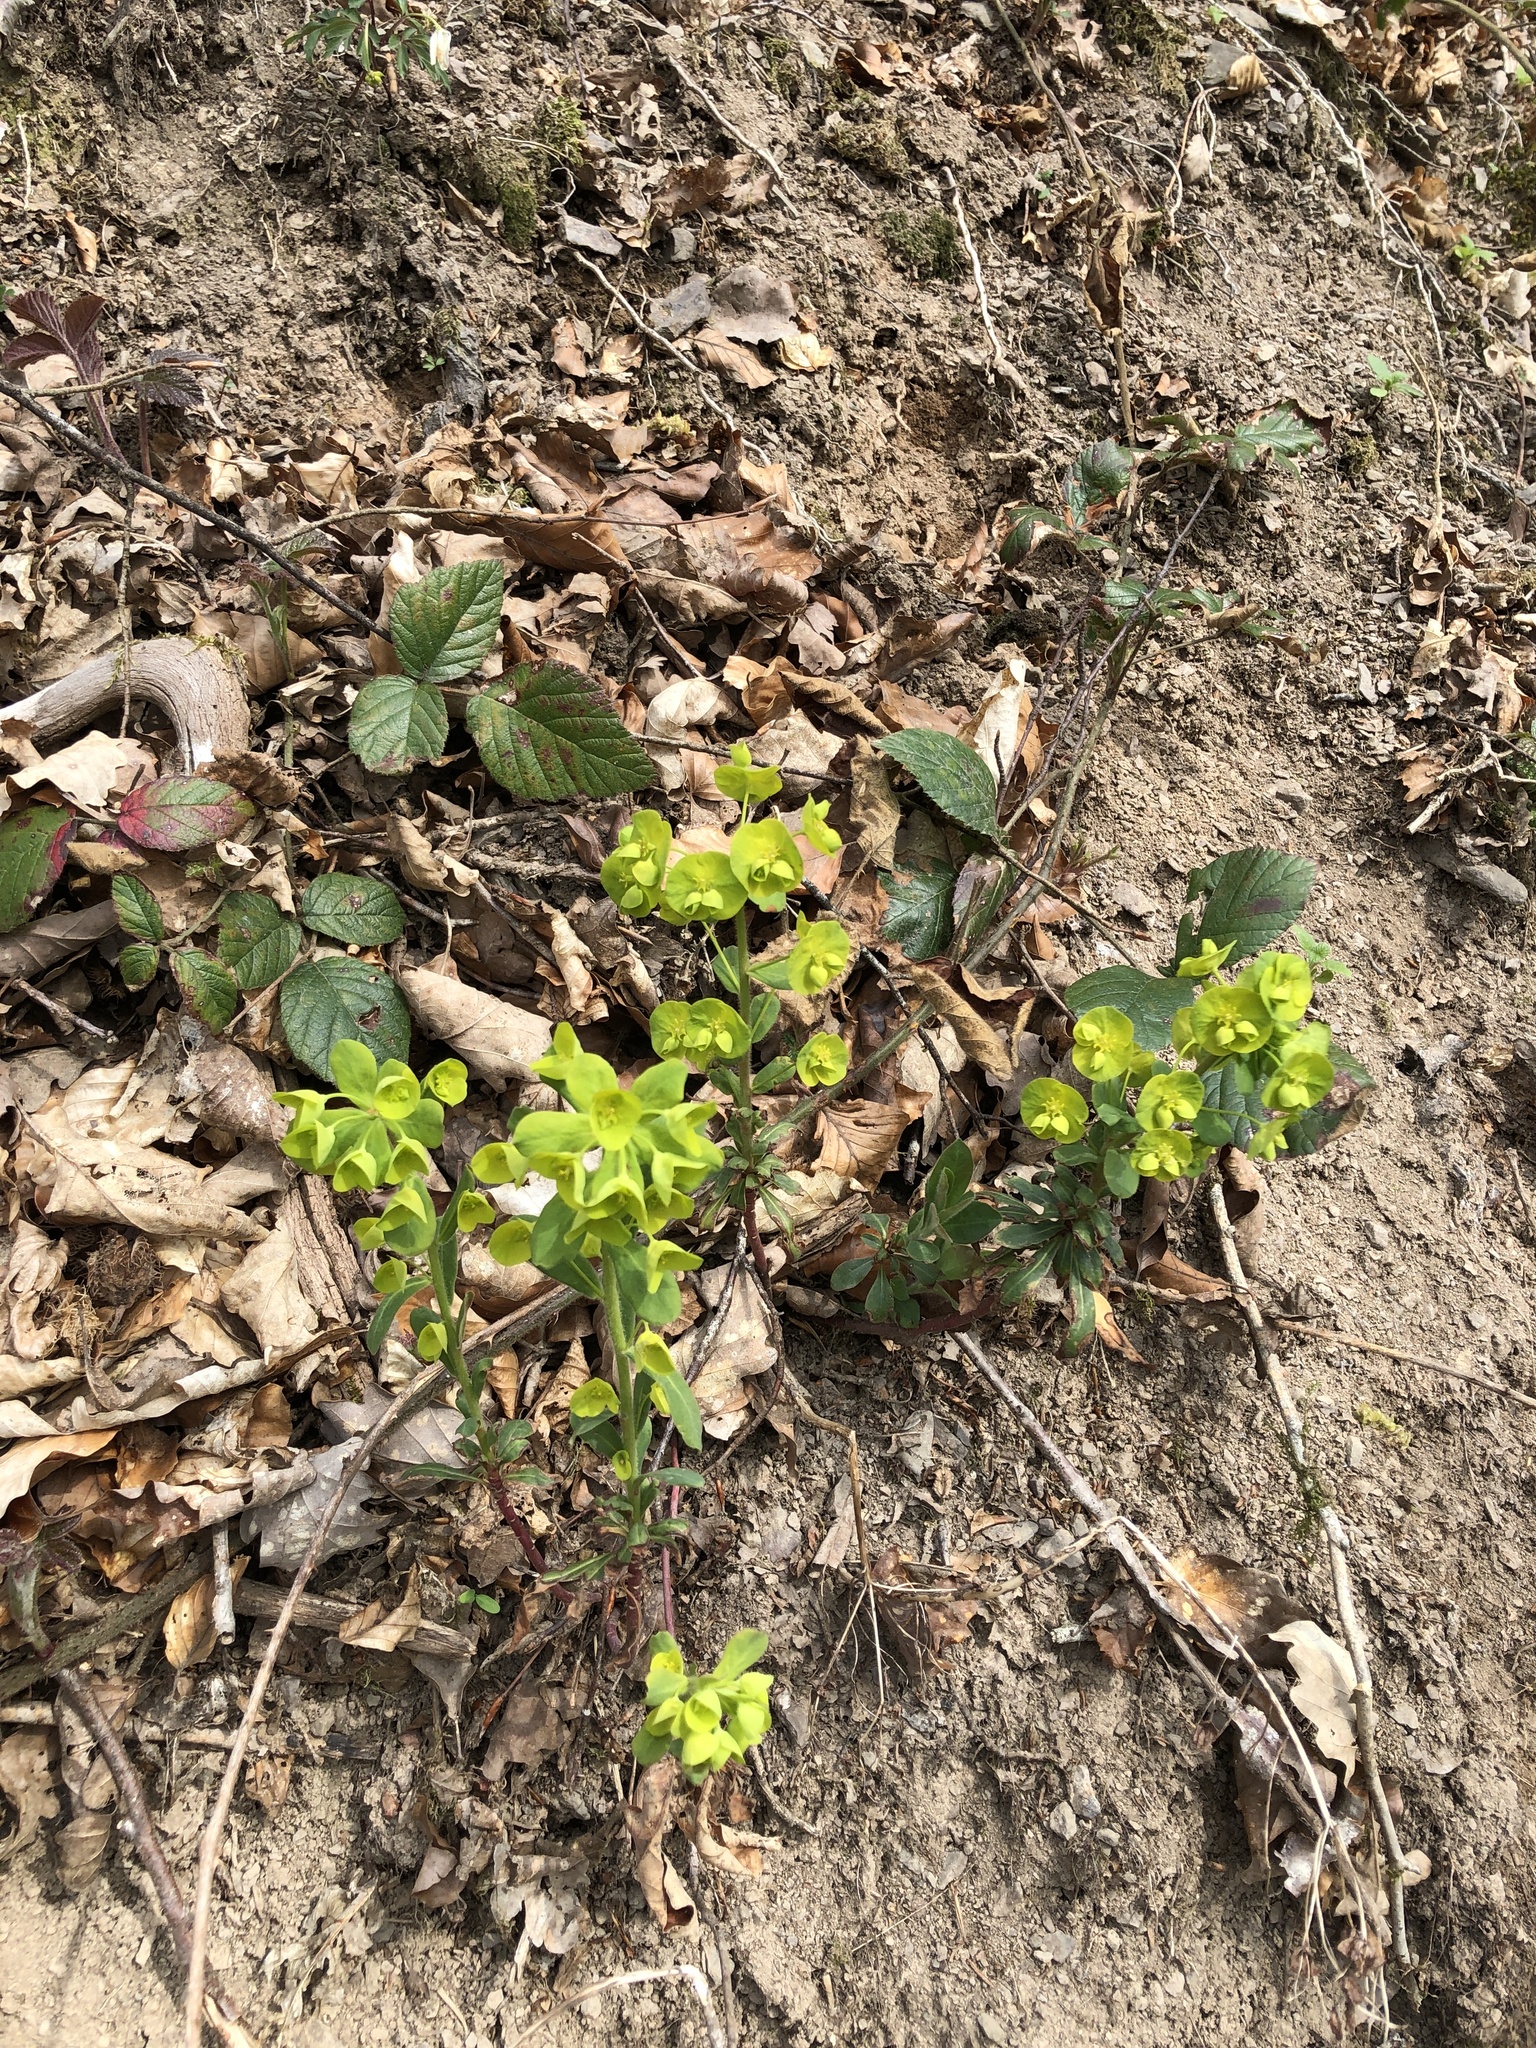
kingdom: Plantae
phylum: Tracheophyta
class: Magnoliopsida
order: Malpighiales
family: Euphorbiaceae
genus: Euphorbia
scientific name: Euphorbia amygdaloides
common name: Wood spurge
